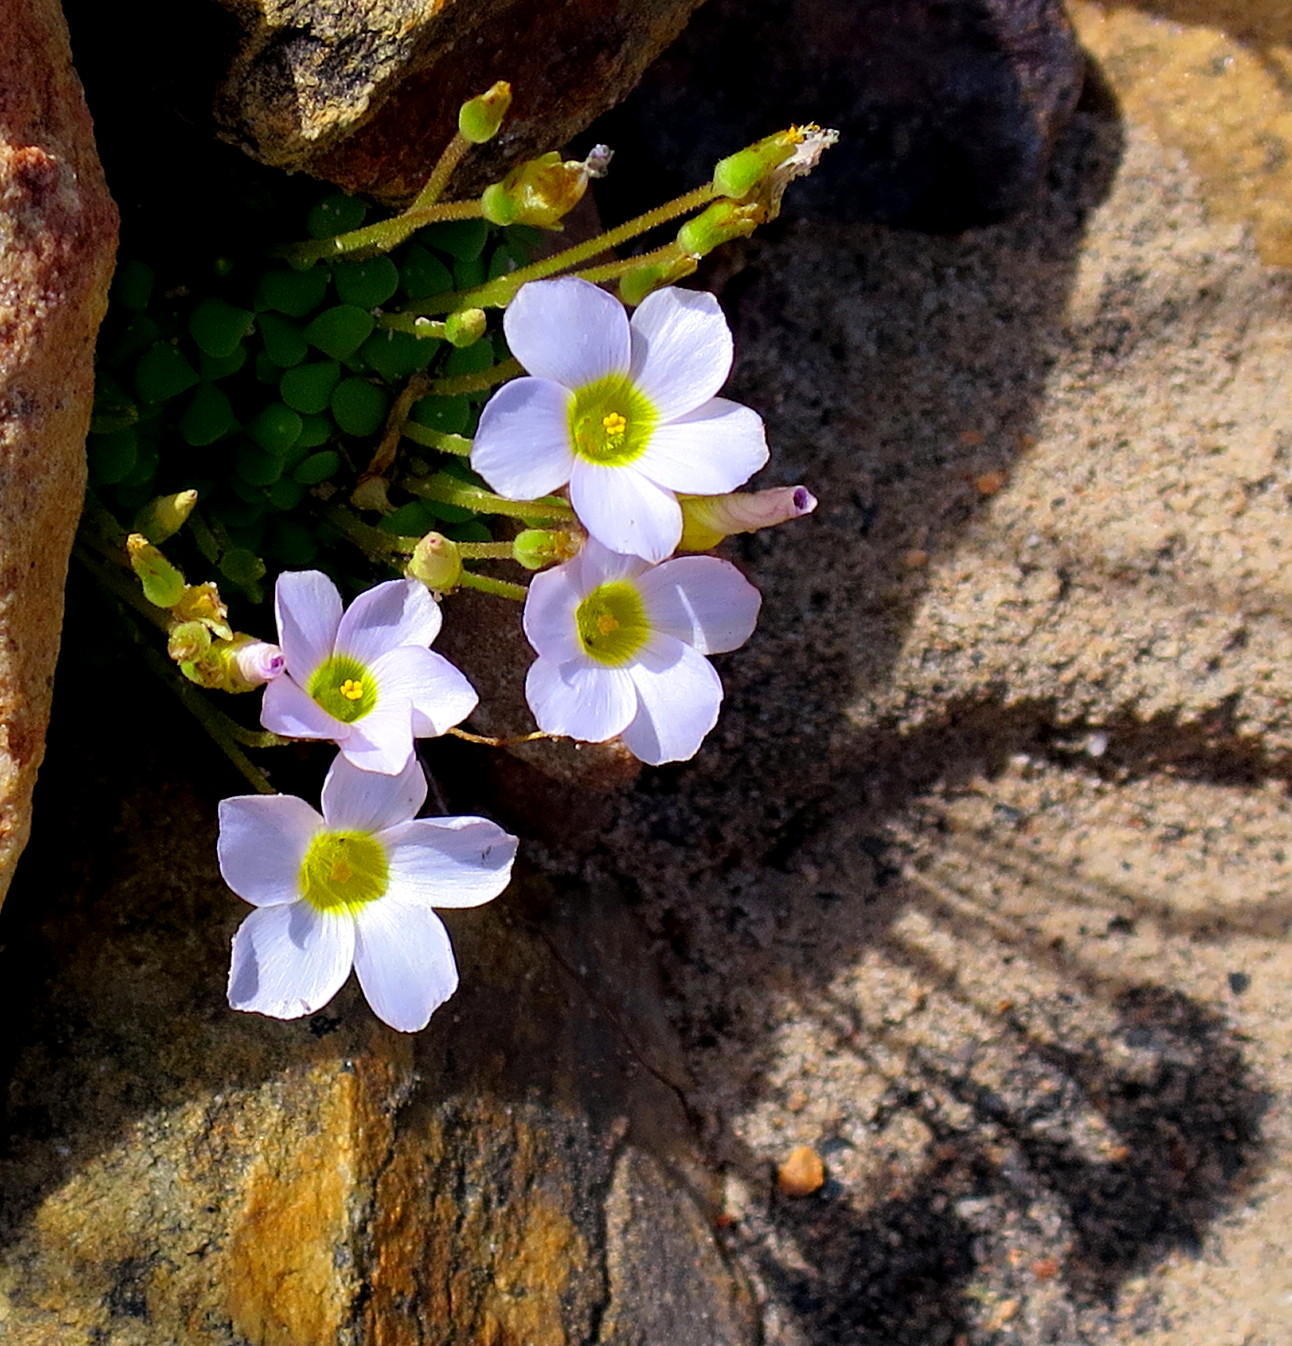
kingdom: Plantae
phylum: Tracheophyta
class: Magnoliopsida
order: Oxalidales
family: Oxalidaceae
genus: Oxalis
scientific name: Oxalis fergusoniae
